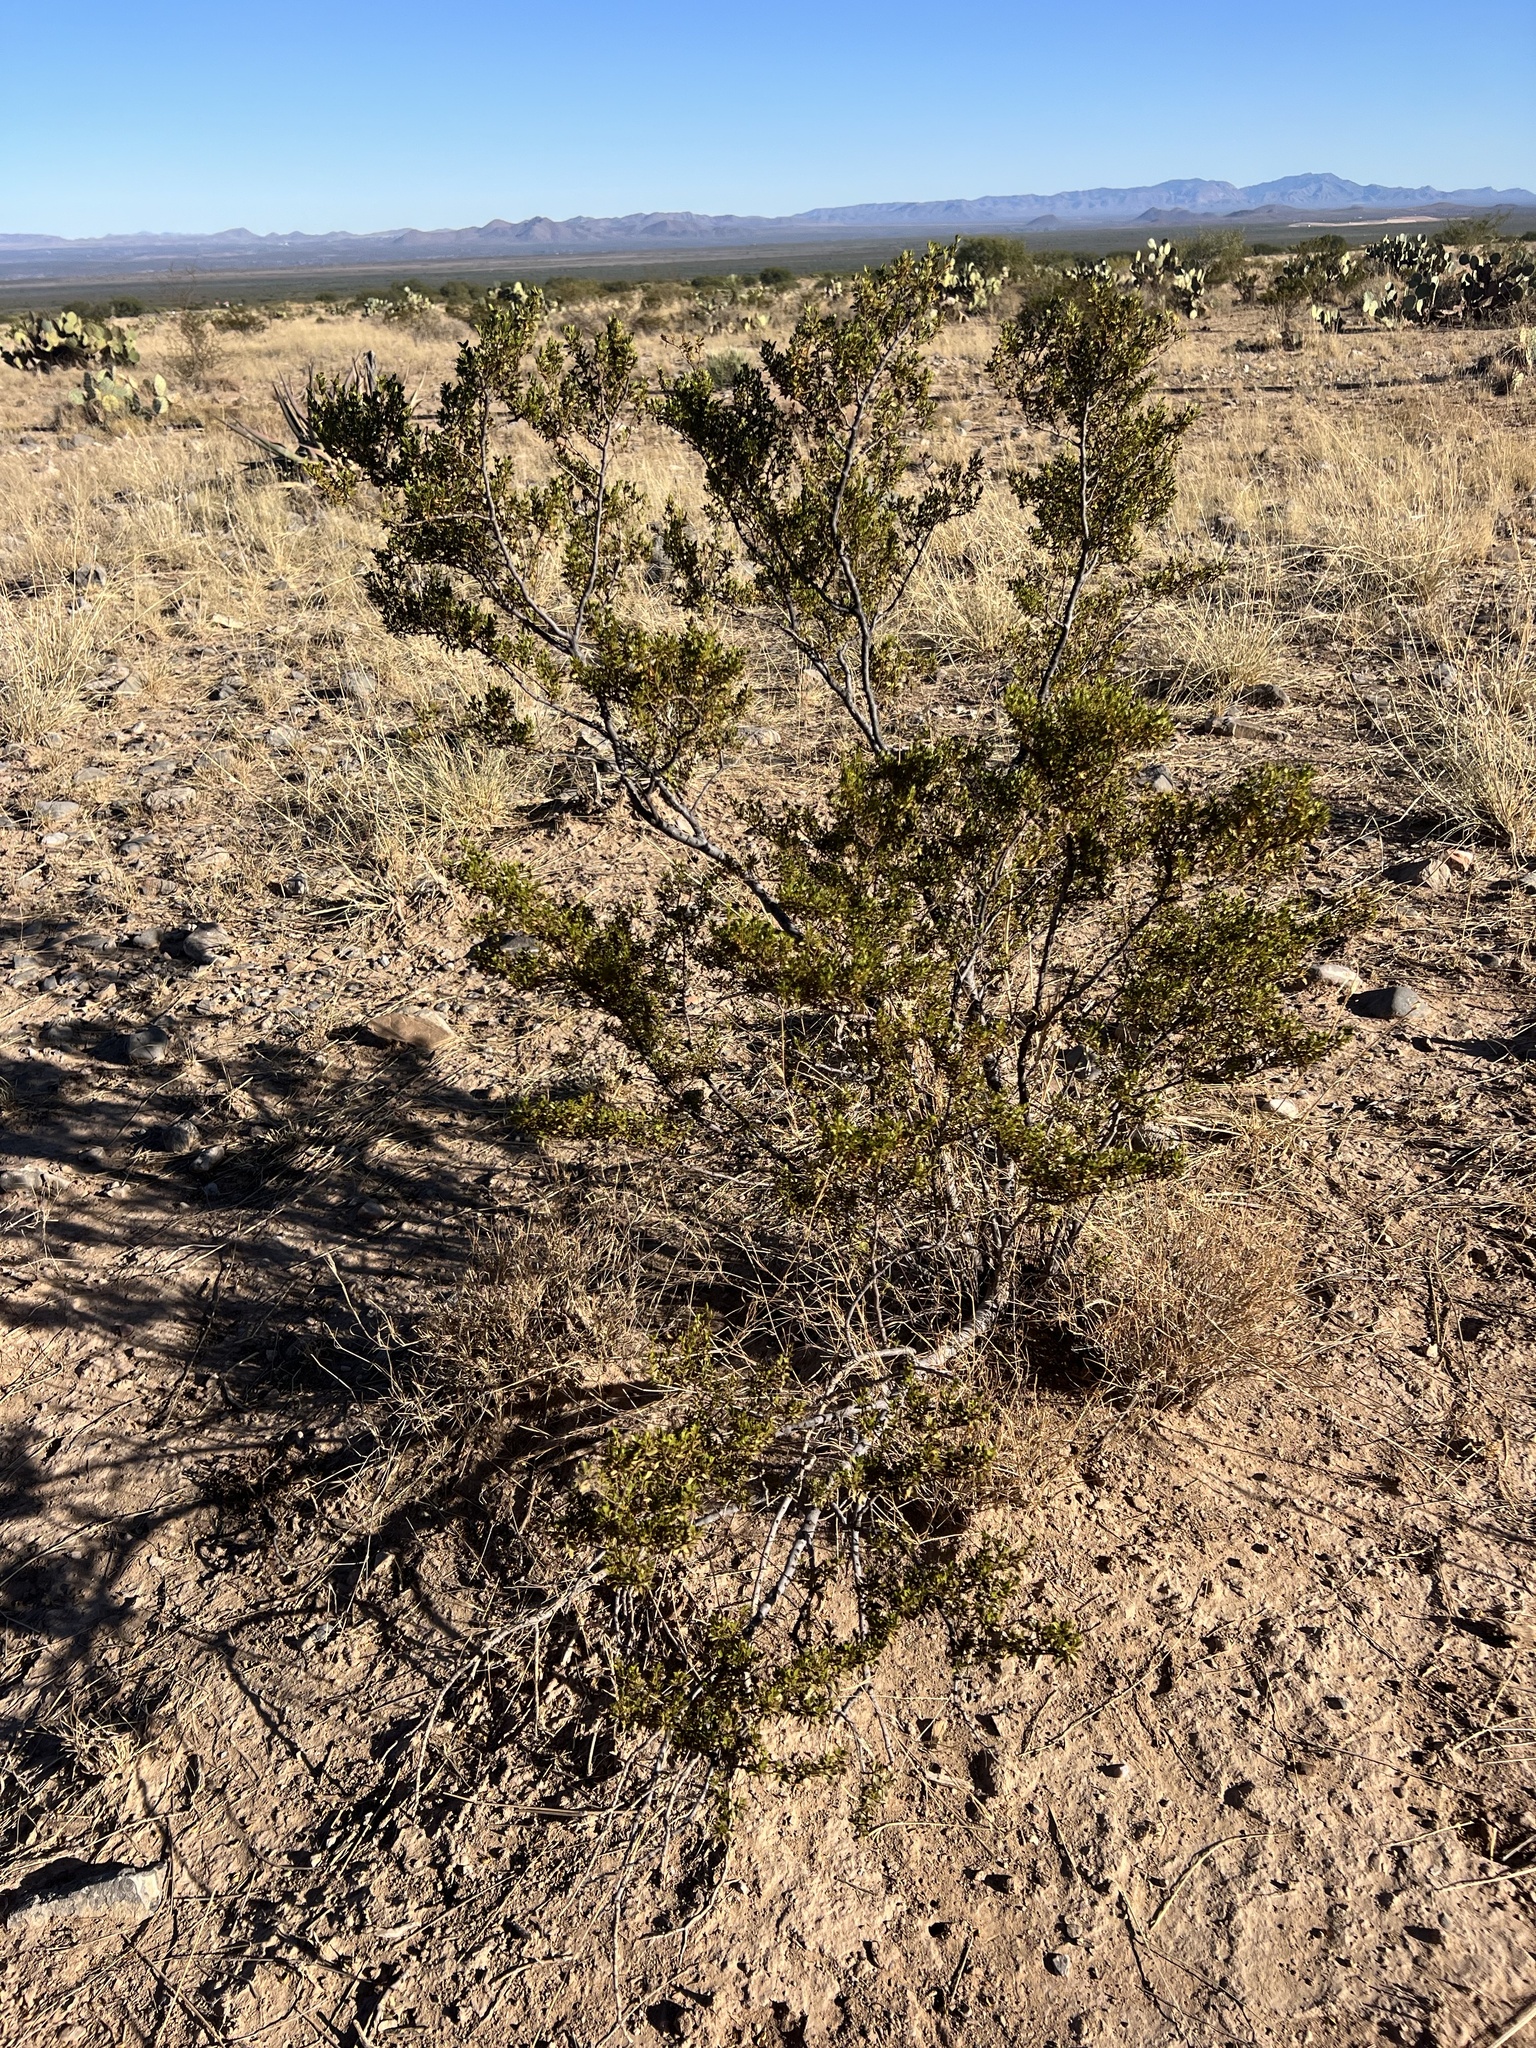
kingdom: Plantae
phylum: Tracheophyta
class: Magnoliopsida
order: Zygophyllales
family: Zygophyllaceae
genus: Larrea
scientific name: Larrea tridentata
